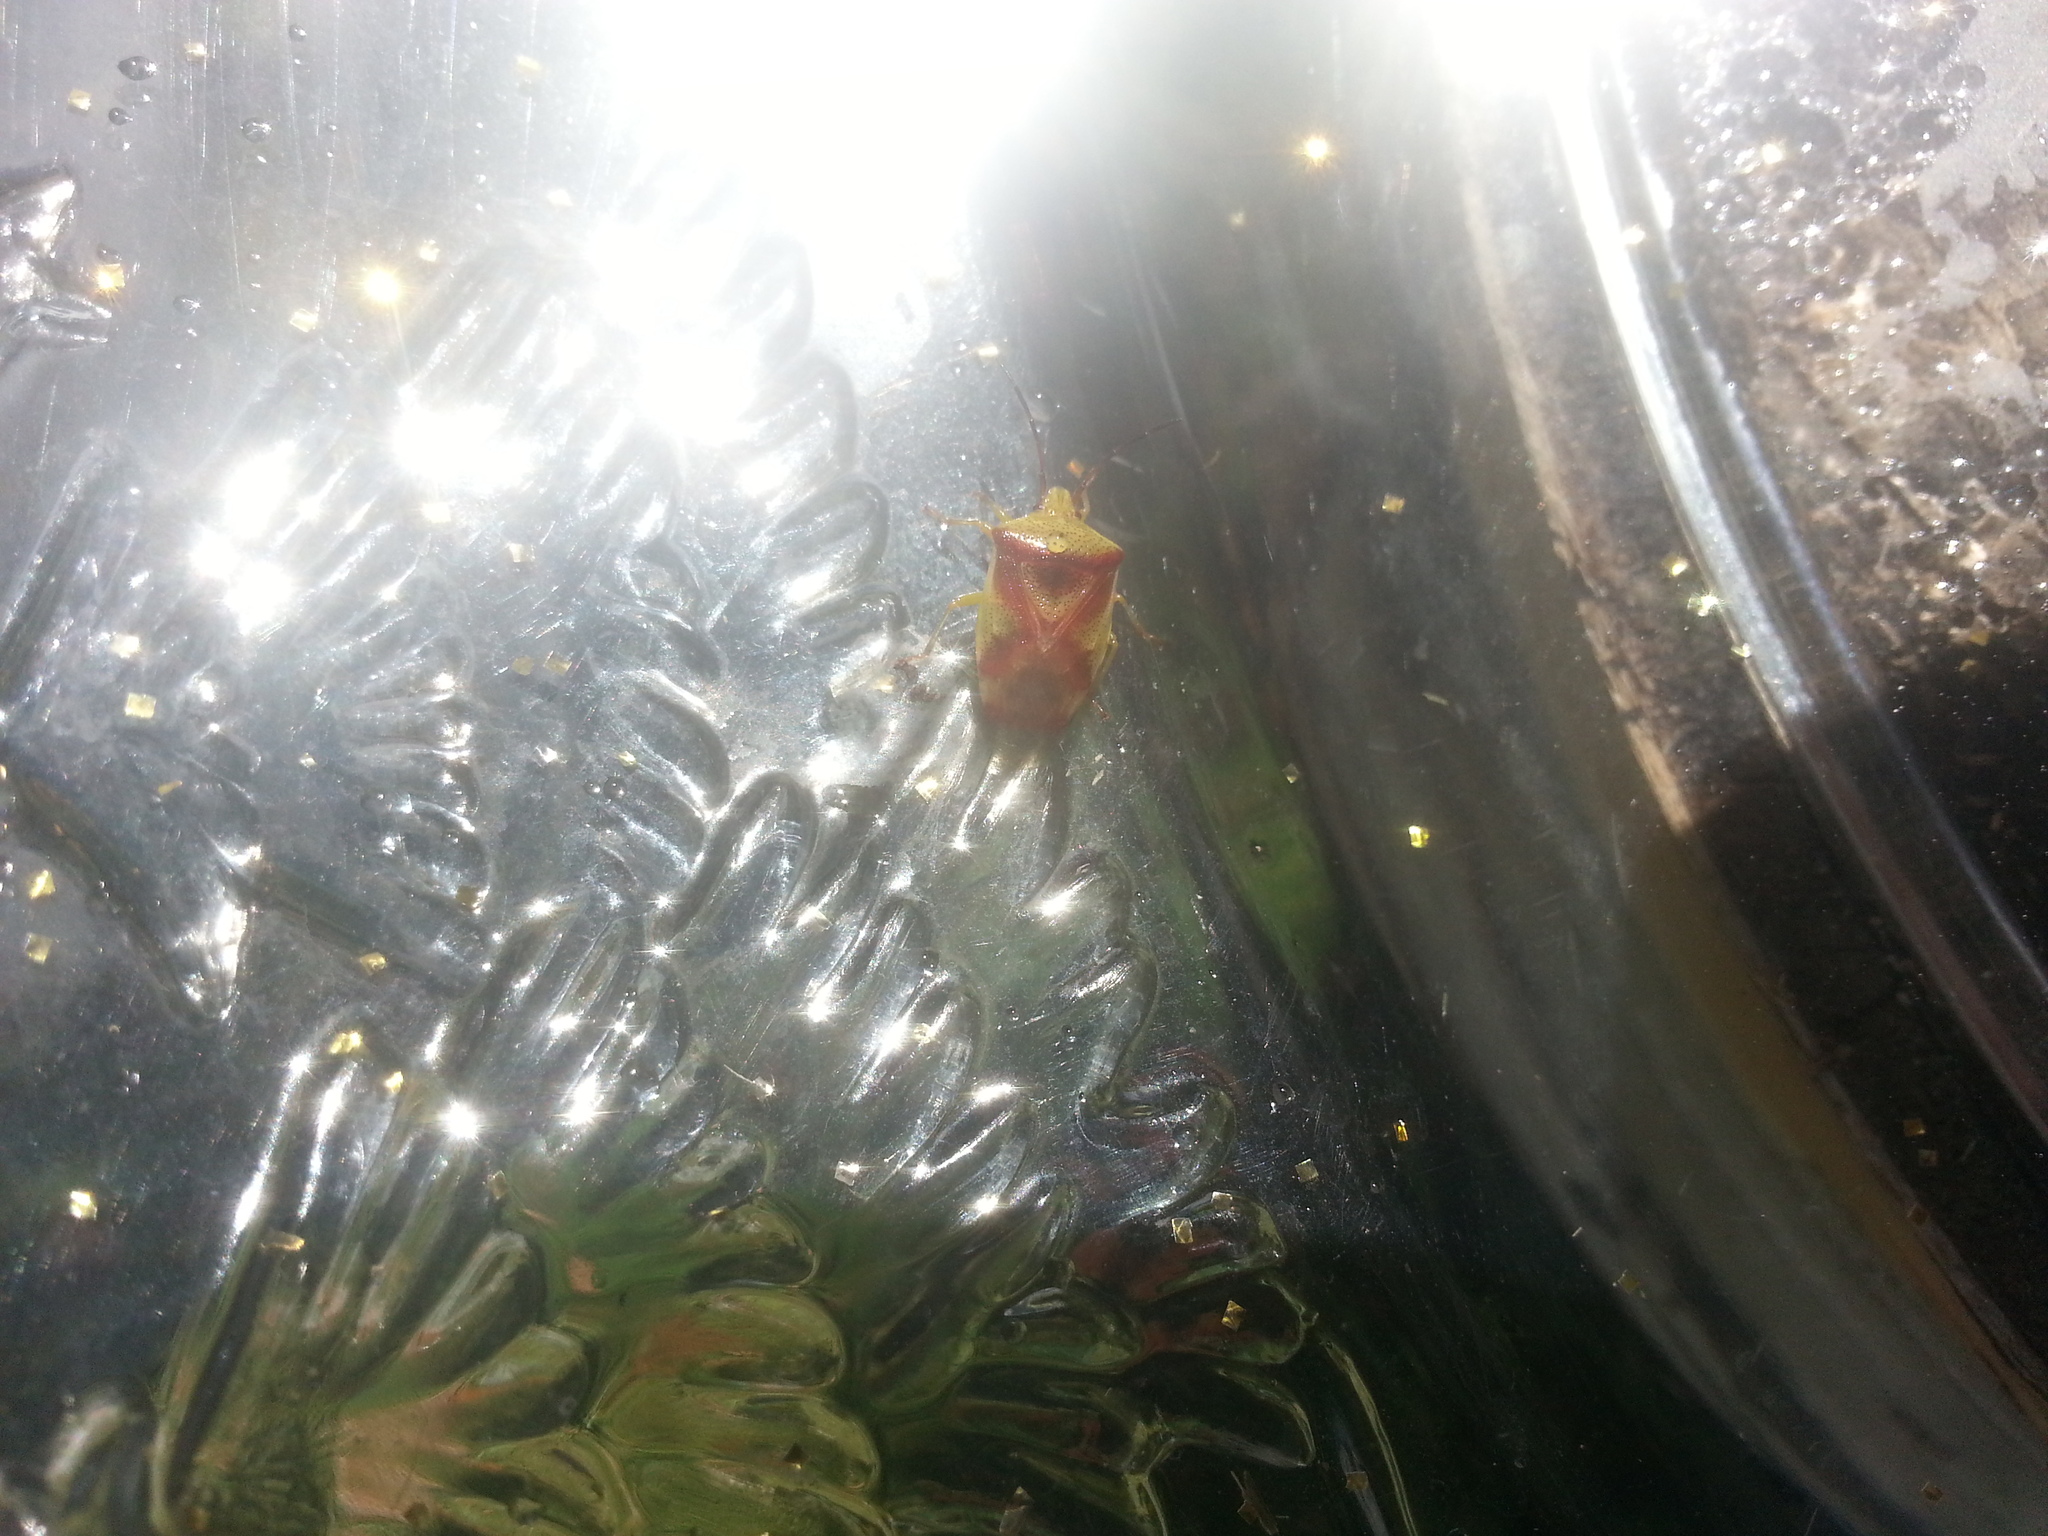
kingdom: Animalia
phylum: Arthropoda
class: Insecta
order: Hemiptera
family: Acanthosomatidae
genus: Elasmostethus
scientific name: Elasmostethus cruciatus
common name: Red-cross shield bug
